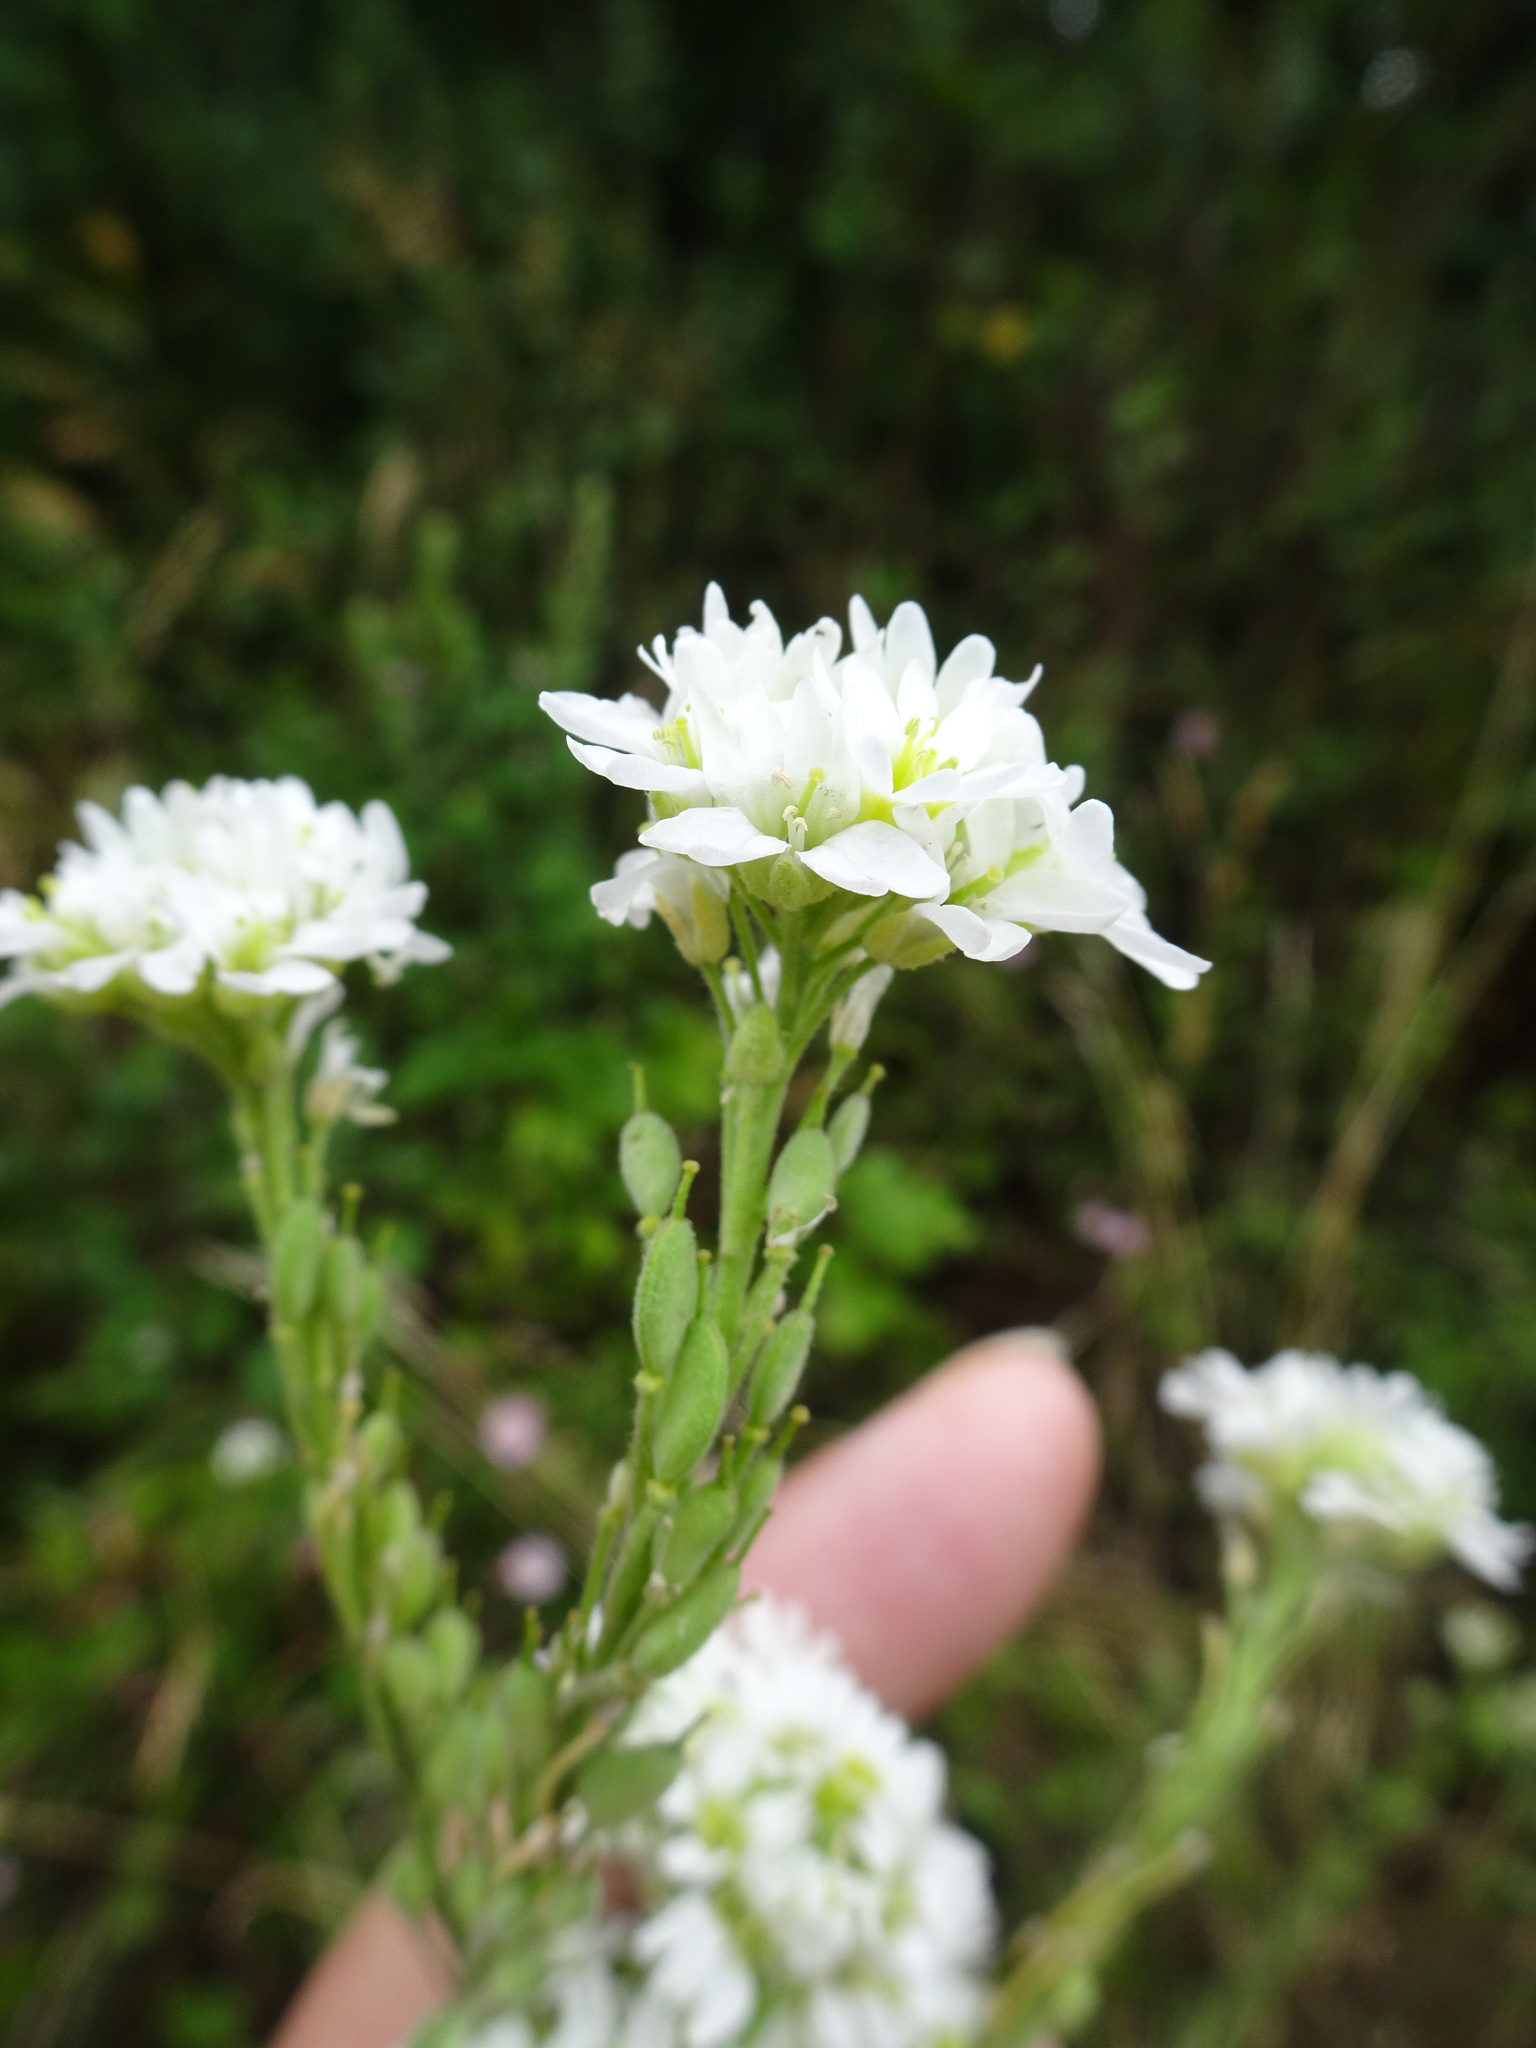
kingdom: Plantae
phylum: Tracheophyta
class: Magnoliopsida
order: Brassicales
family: Brassicaceae
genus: Berteroa
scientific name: Berteroa incana
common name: Hoary alison
